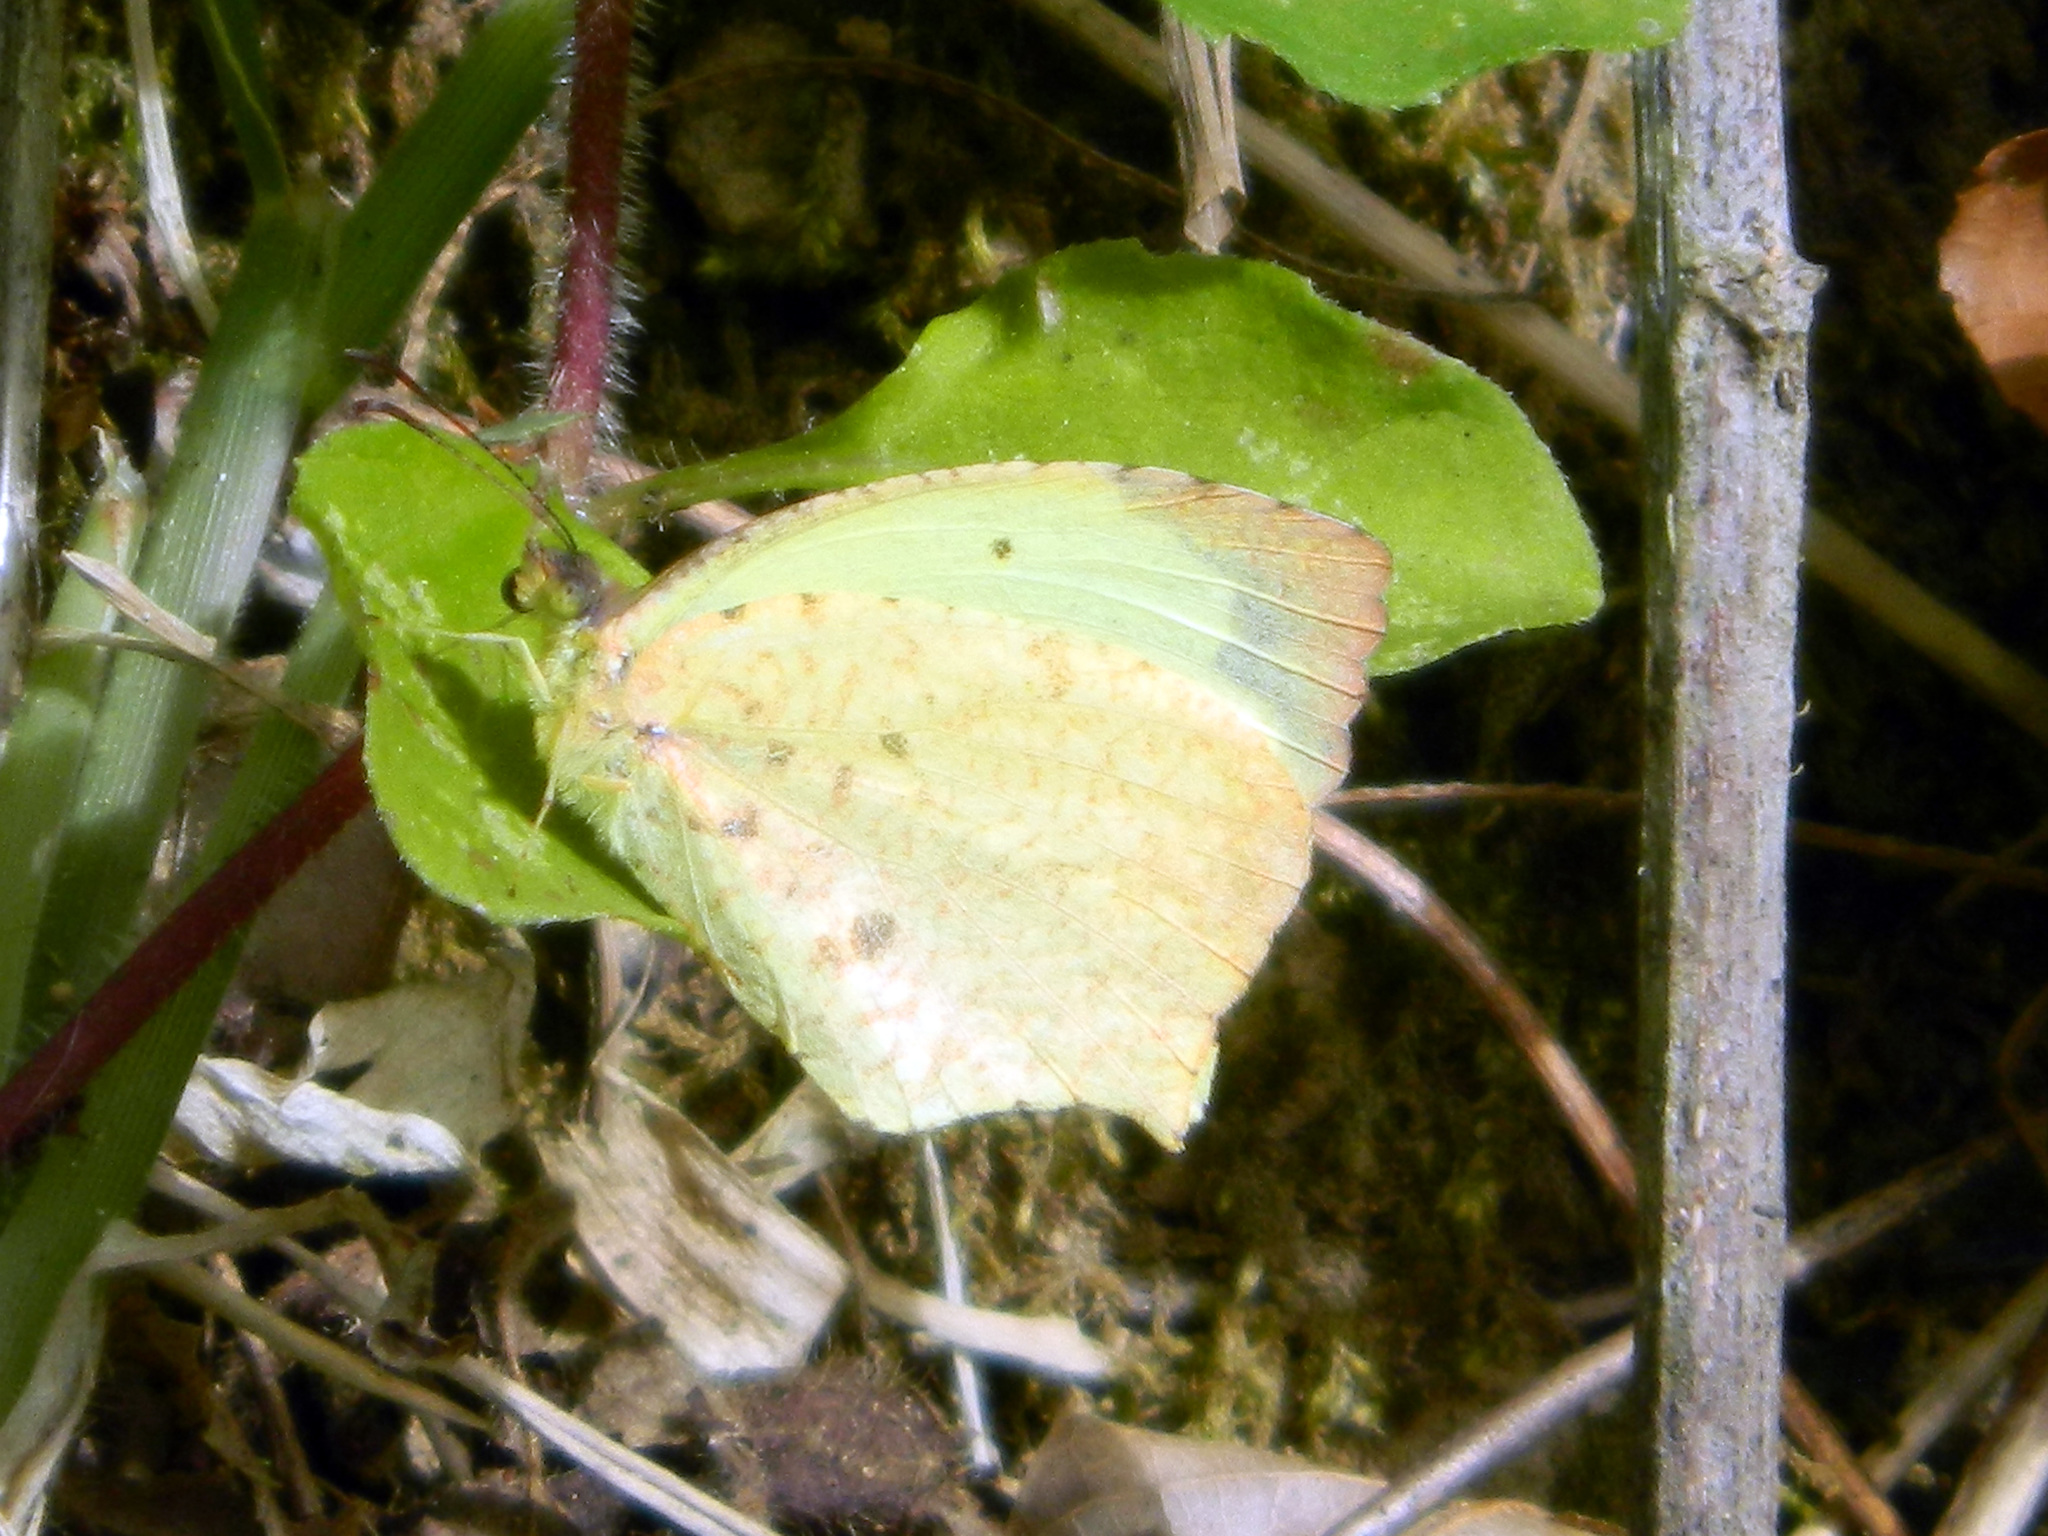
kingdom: Animalia
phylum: Arthropoda
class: Insecta
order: Lepidoptera
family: Pieridae
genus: Abaeis
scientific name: Abaeis salome
